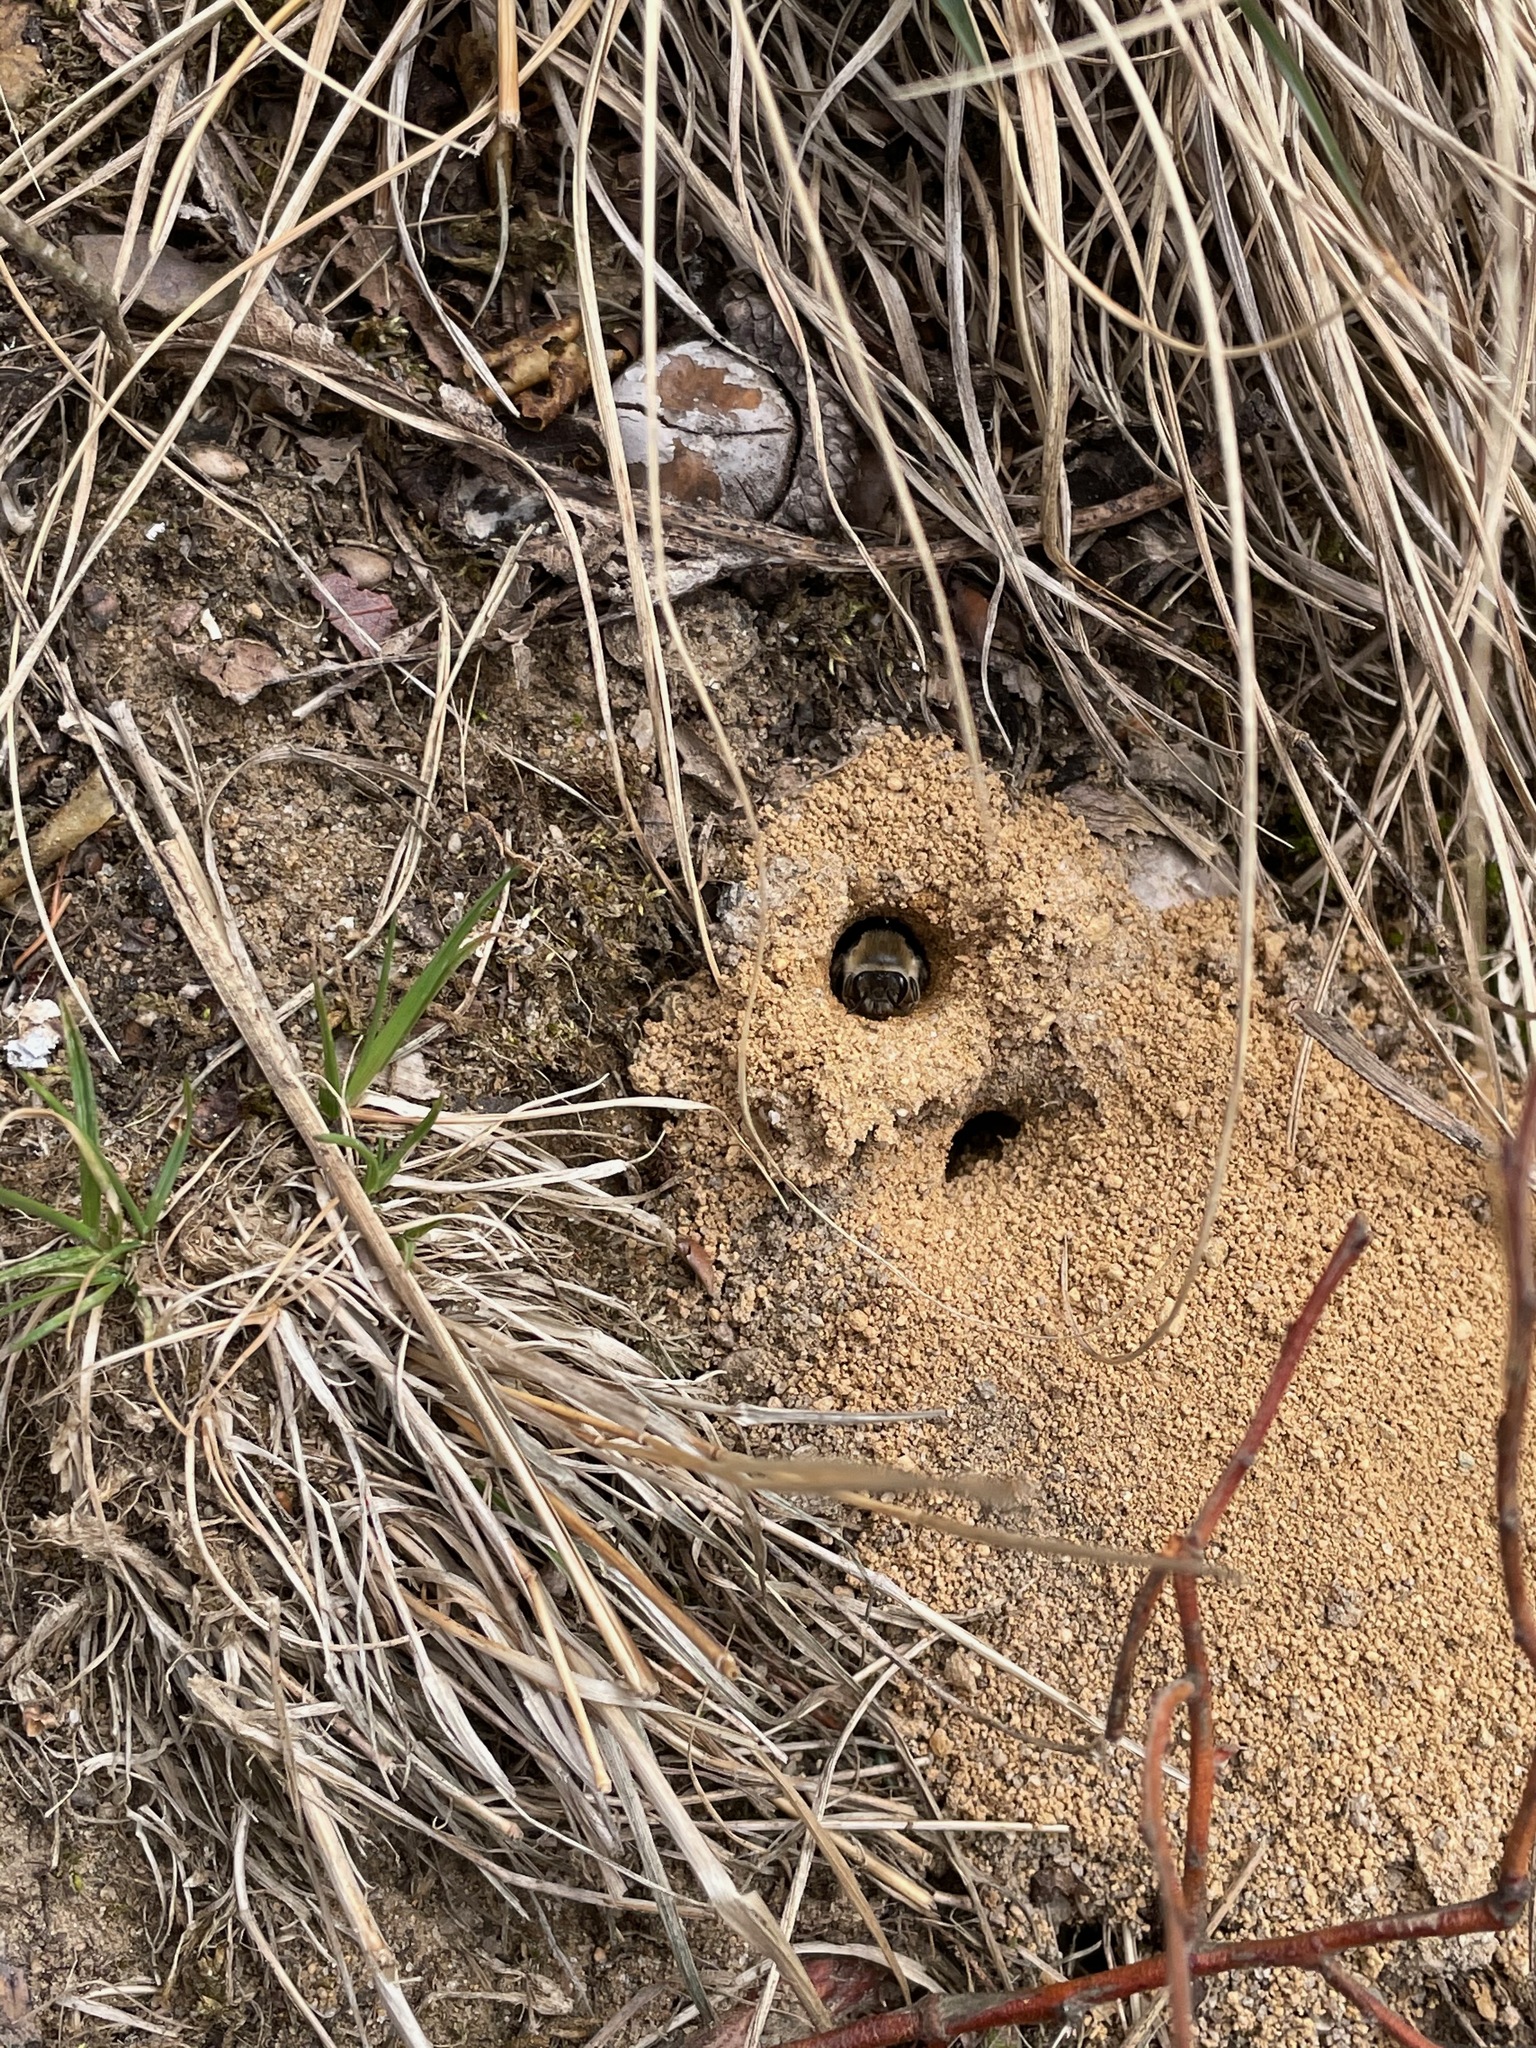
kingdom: Animalia
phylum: Arthropoda
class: Insecta
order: Hymenoptera
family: Colletidae
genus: Colletes
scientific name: Colletes inaequalis
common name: Unequal cellophane bee
